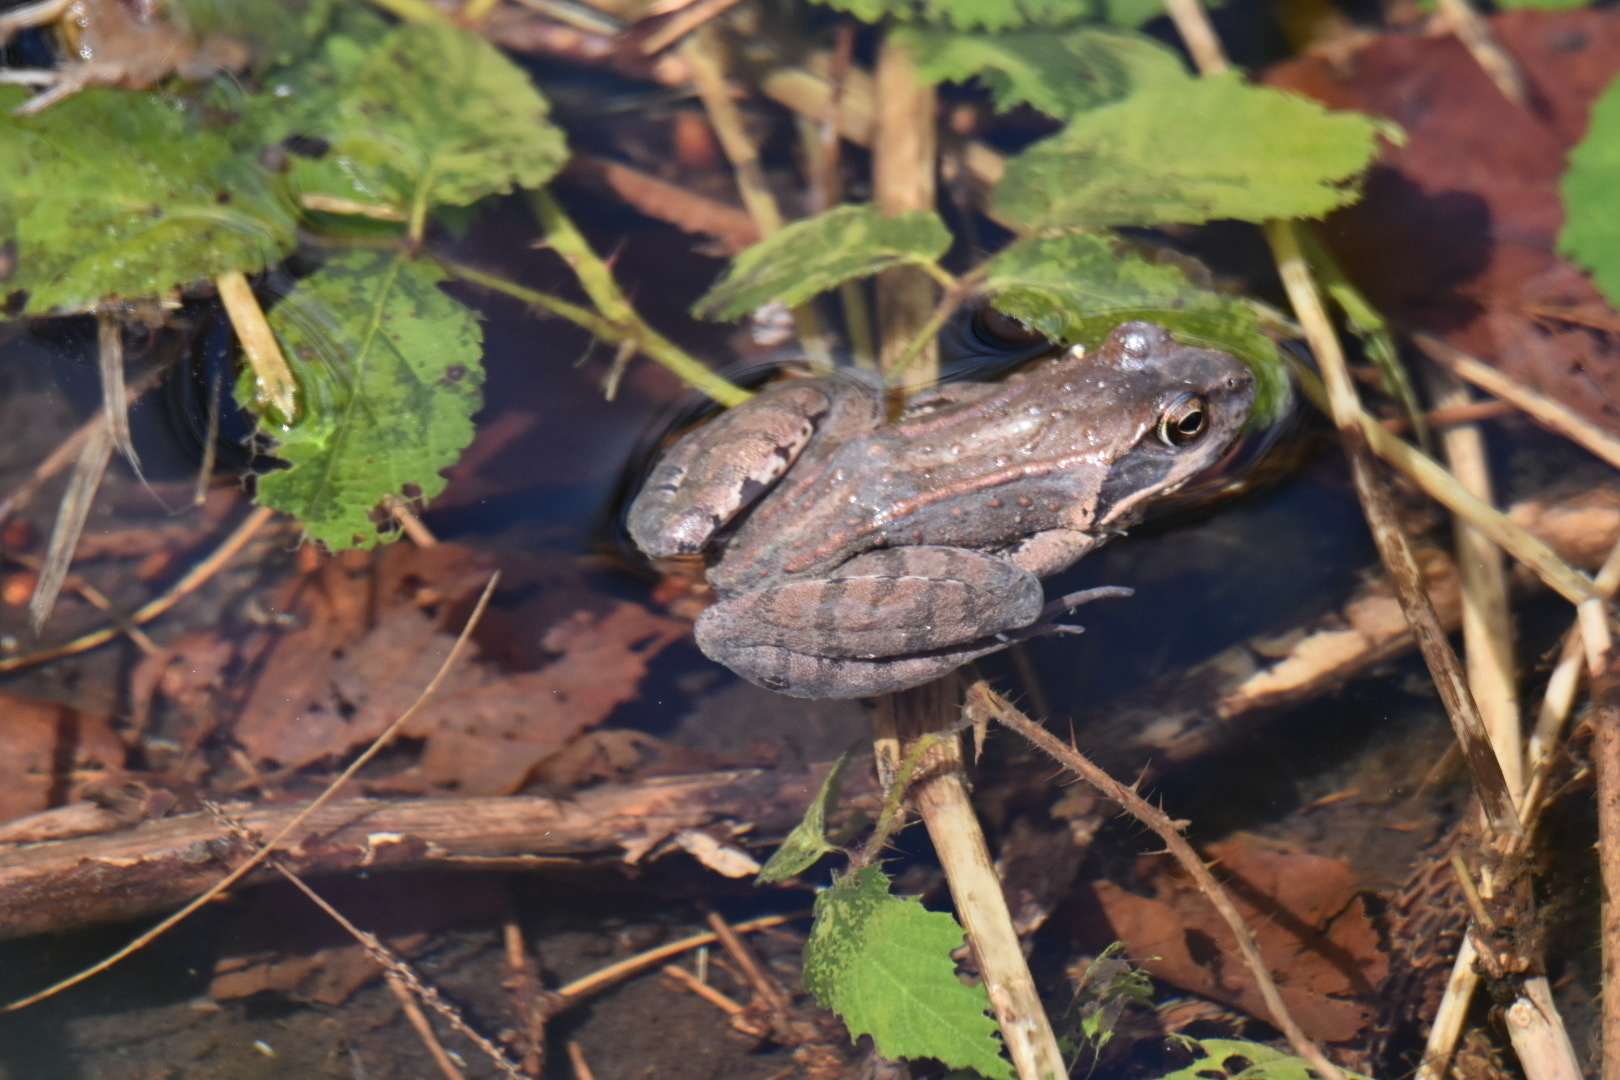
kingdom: Animalia
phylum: Chordata
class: Amphibia
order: Anura
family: Ranidae
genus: Rana
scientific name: Rana temporaria
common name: Common frog
